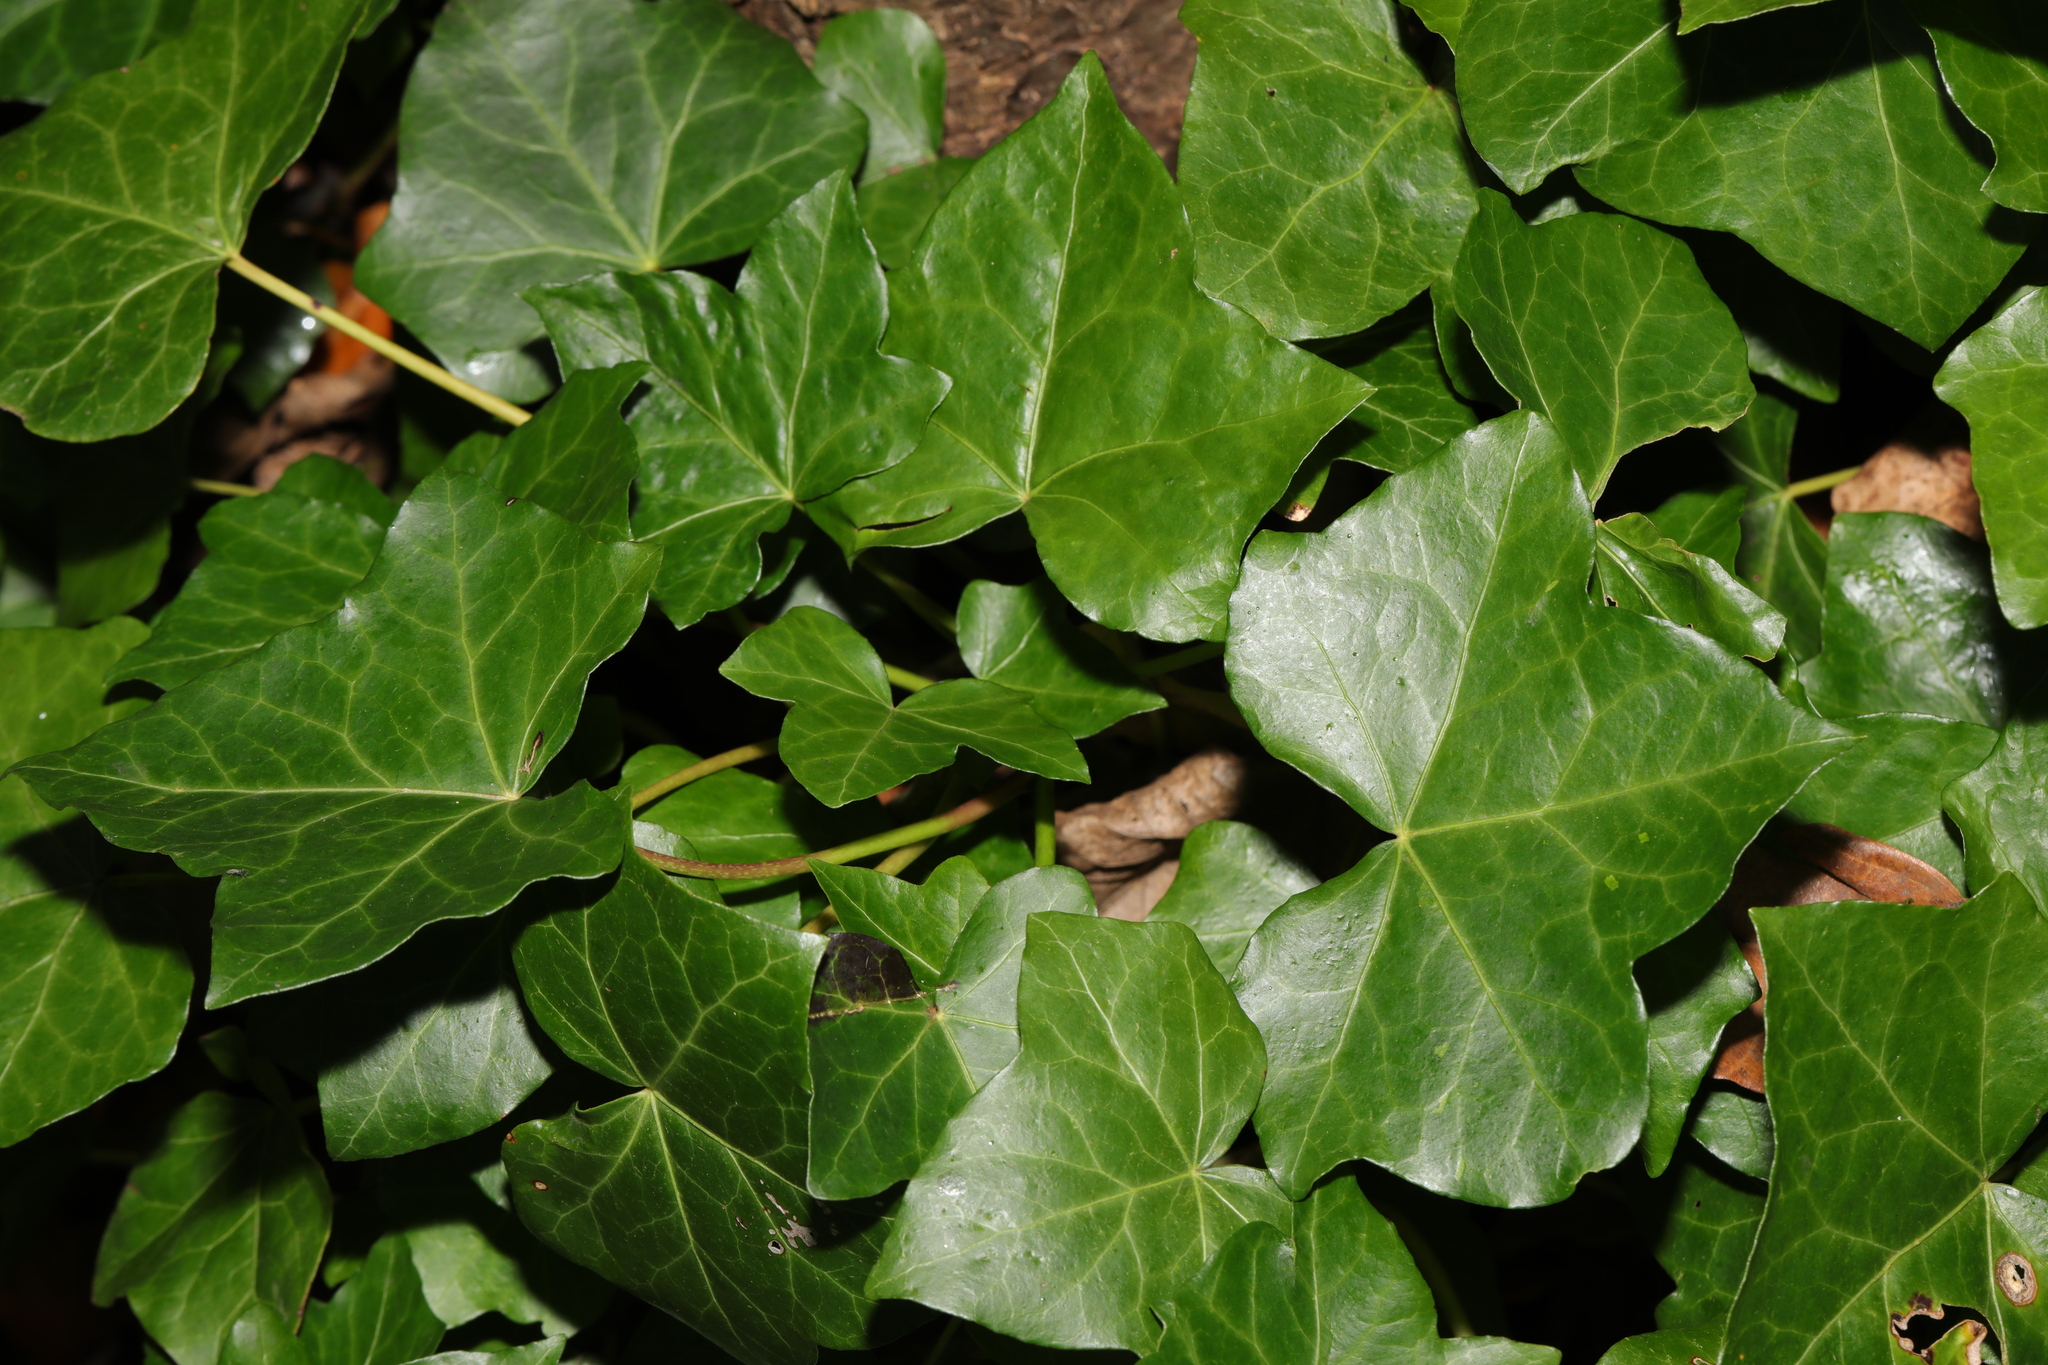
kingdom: Plantae
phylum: Tracheophyta
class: Magnoliopsida
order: Apiales
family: Araliaceae
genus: Hedera
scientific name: Hedera helix
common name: Ivy
